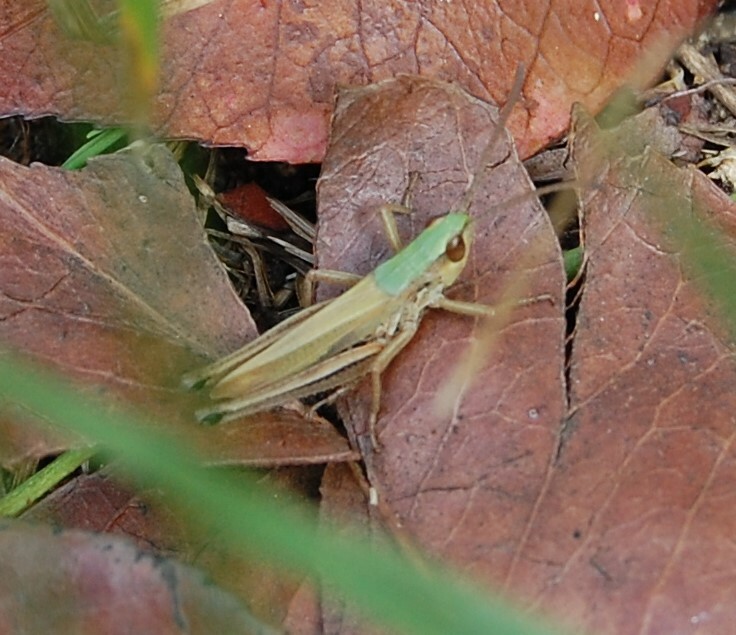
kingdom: Animalia
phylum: Arthropoda
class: Insecta
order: Orthoptera
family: Acrididae
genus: Pseudochorthippus
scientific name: Pseudochorthippus parallelus
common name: Meadow grasshopper
